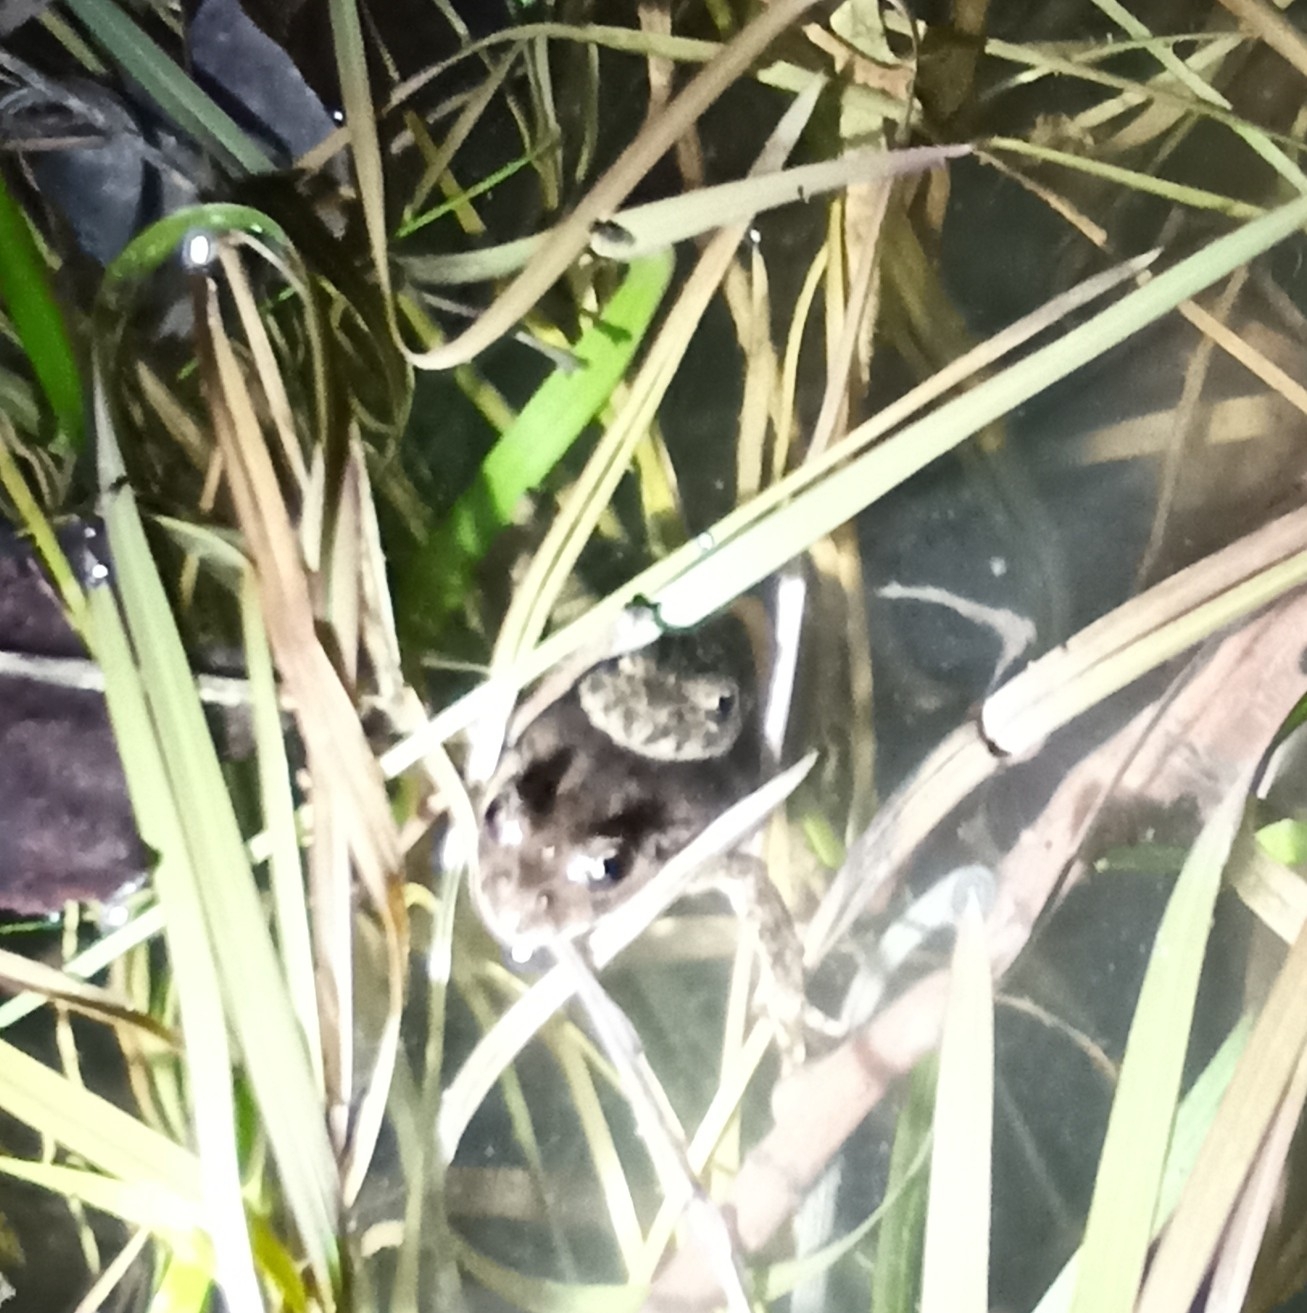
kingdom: Animalia
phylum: Chordata
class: Amphibia
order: Anura
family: Pelodytidae
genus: Pelodytes
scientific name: Pelodytes punctatus
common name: Parsley frog
